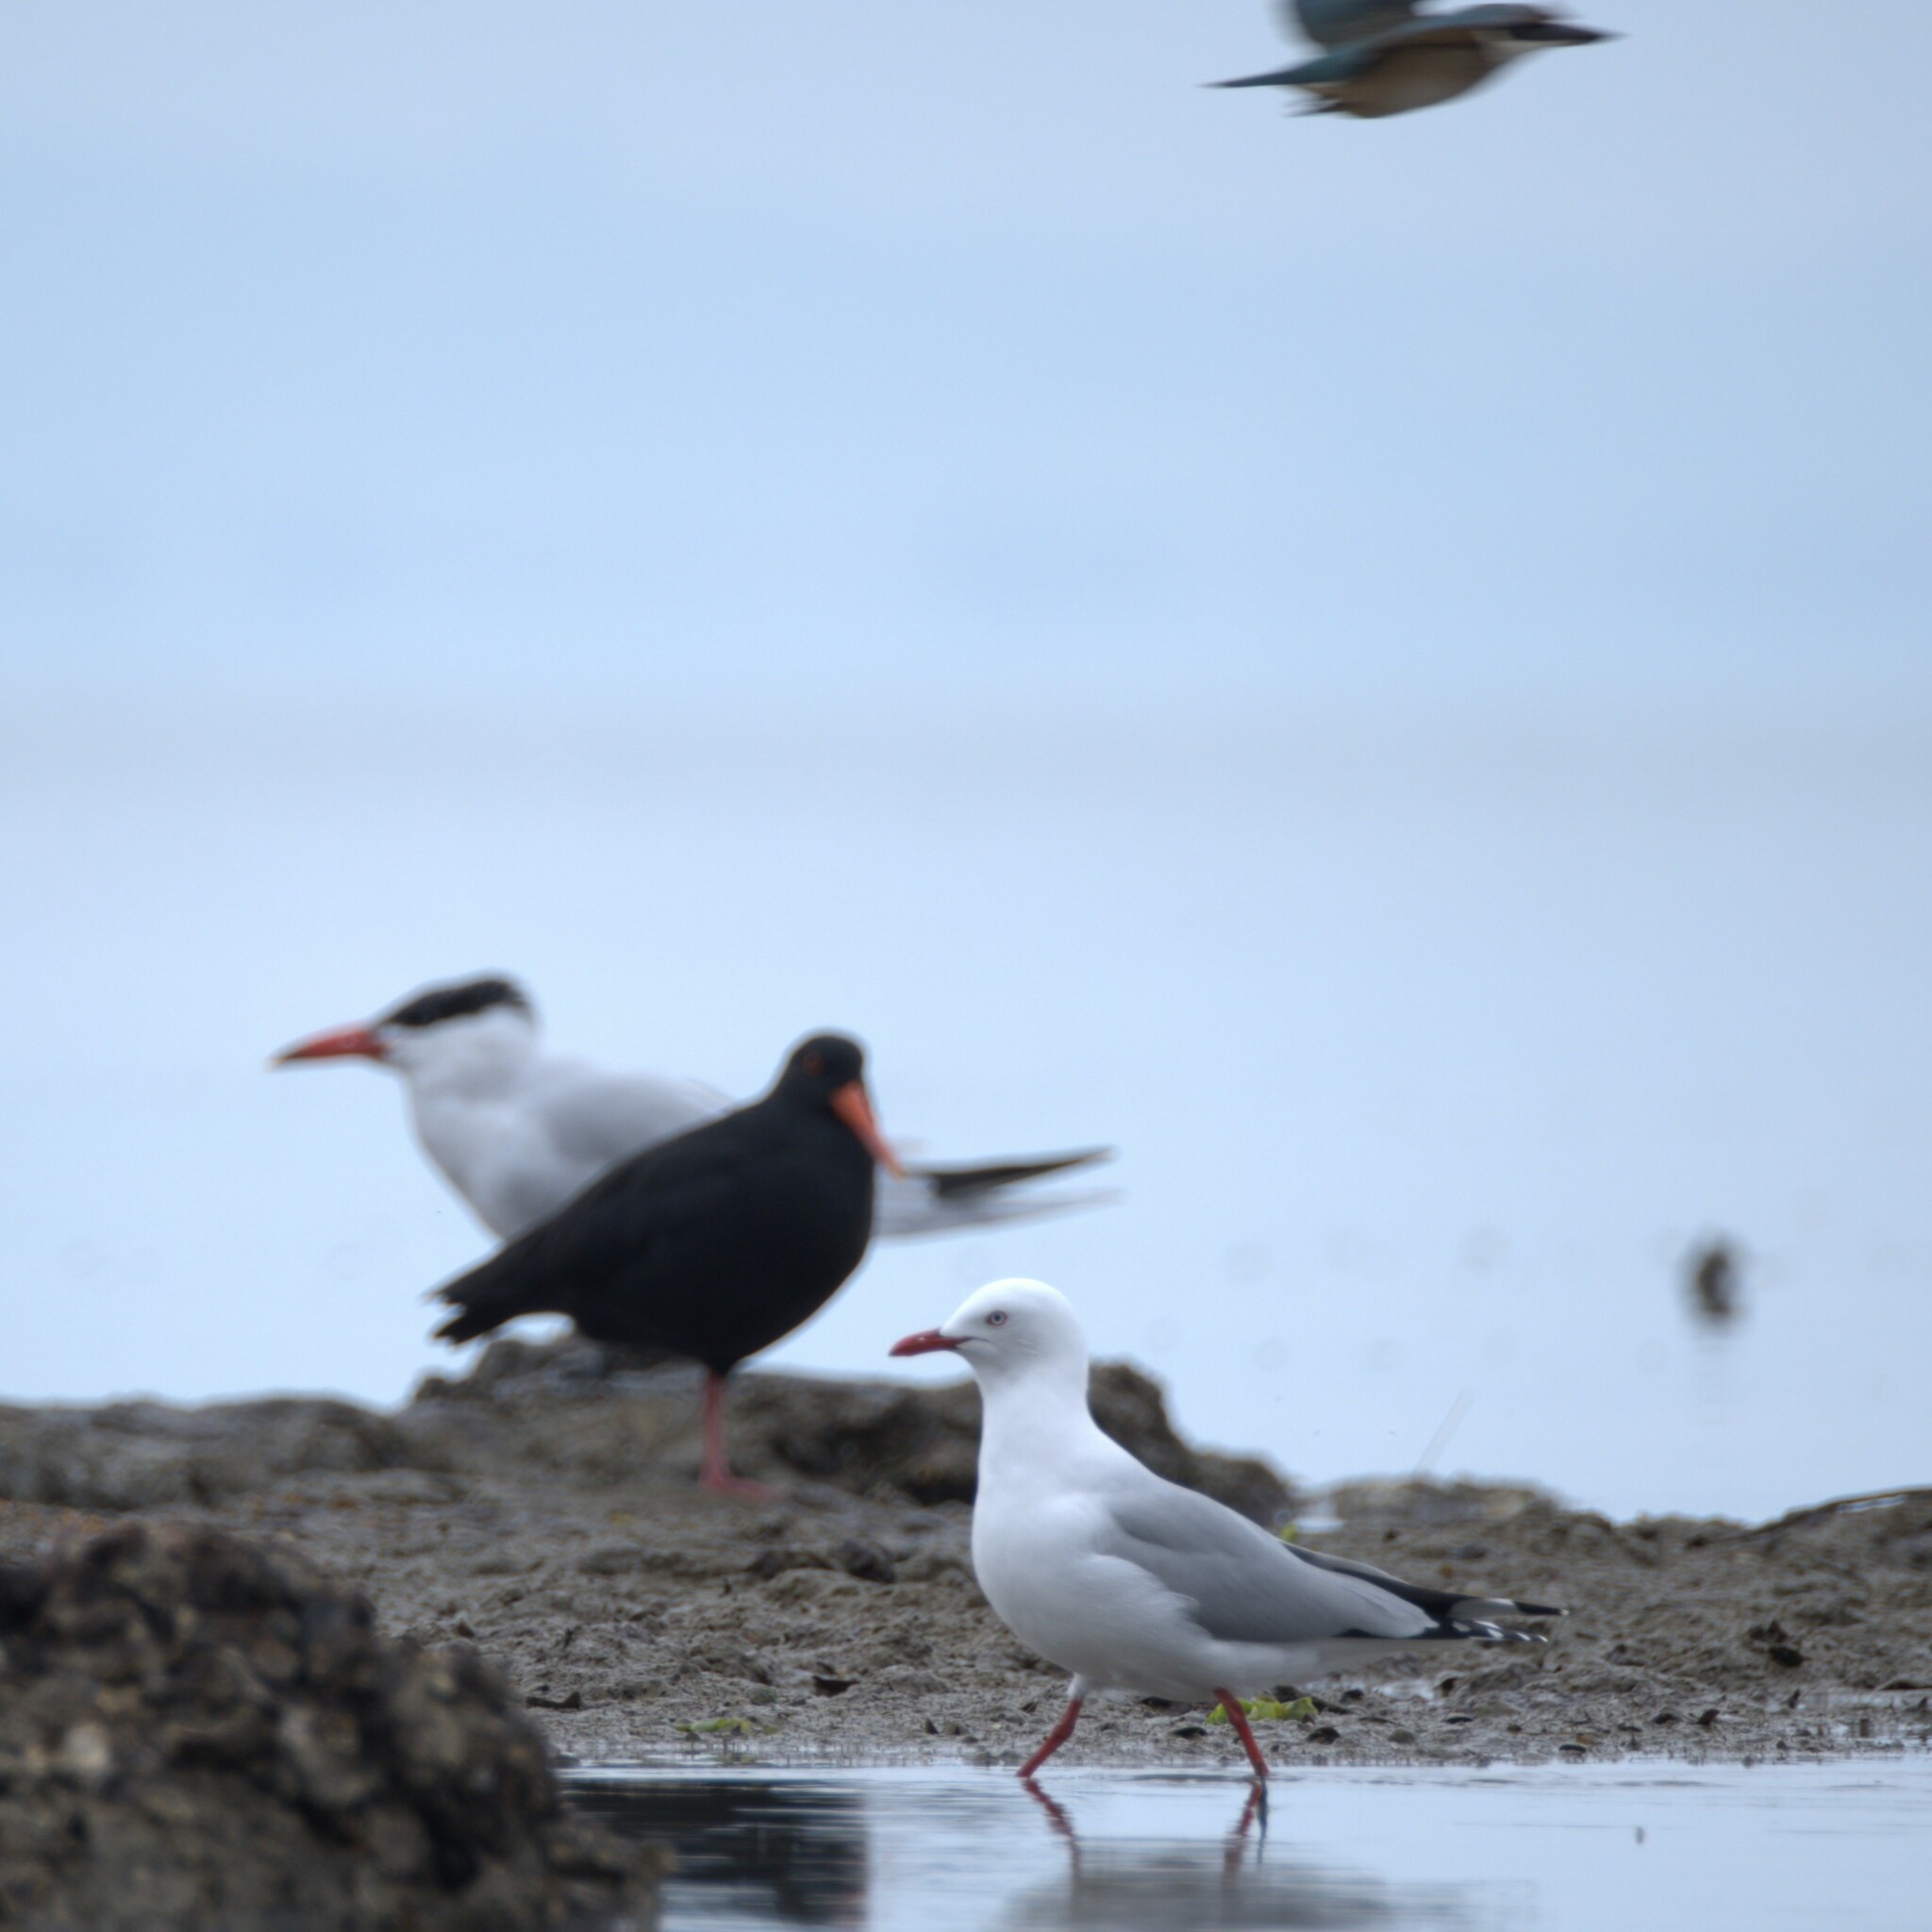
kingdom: Animalia
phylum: Chordata
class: Aves
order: Charadriiformes
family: Haematopodidae
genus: Haematopus
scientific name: Haematopus unicolor
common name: Variable oystercatcher
